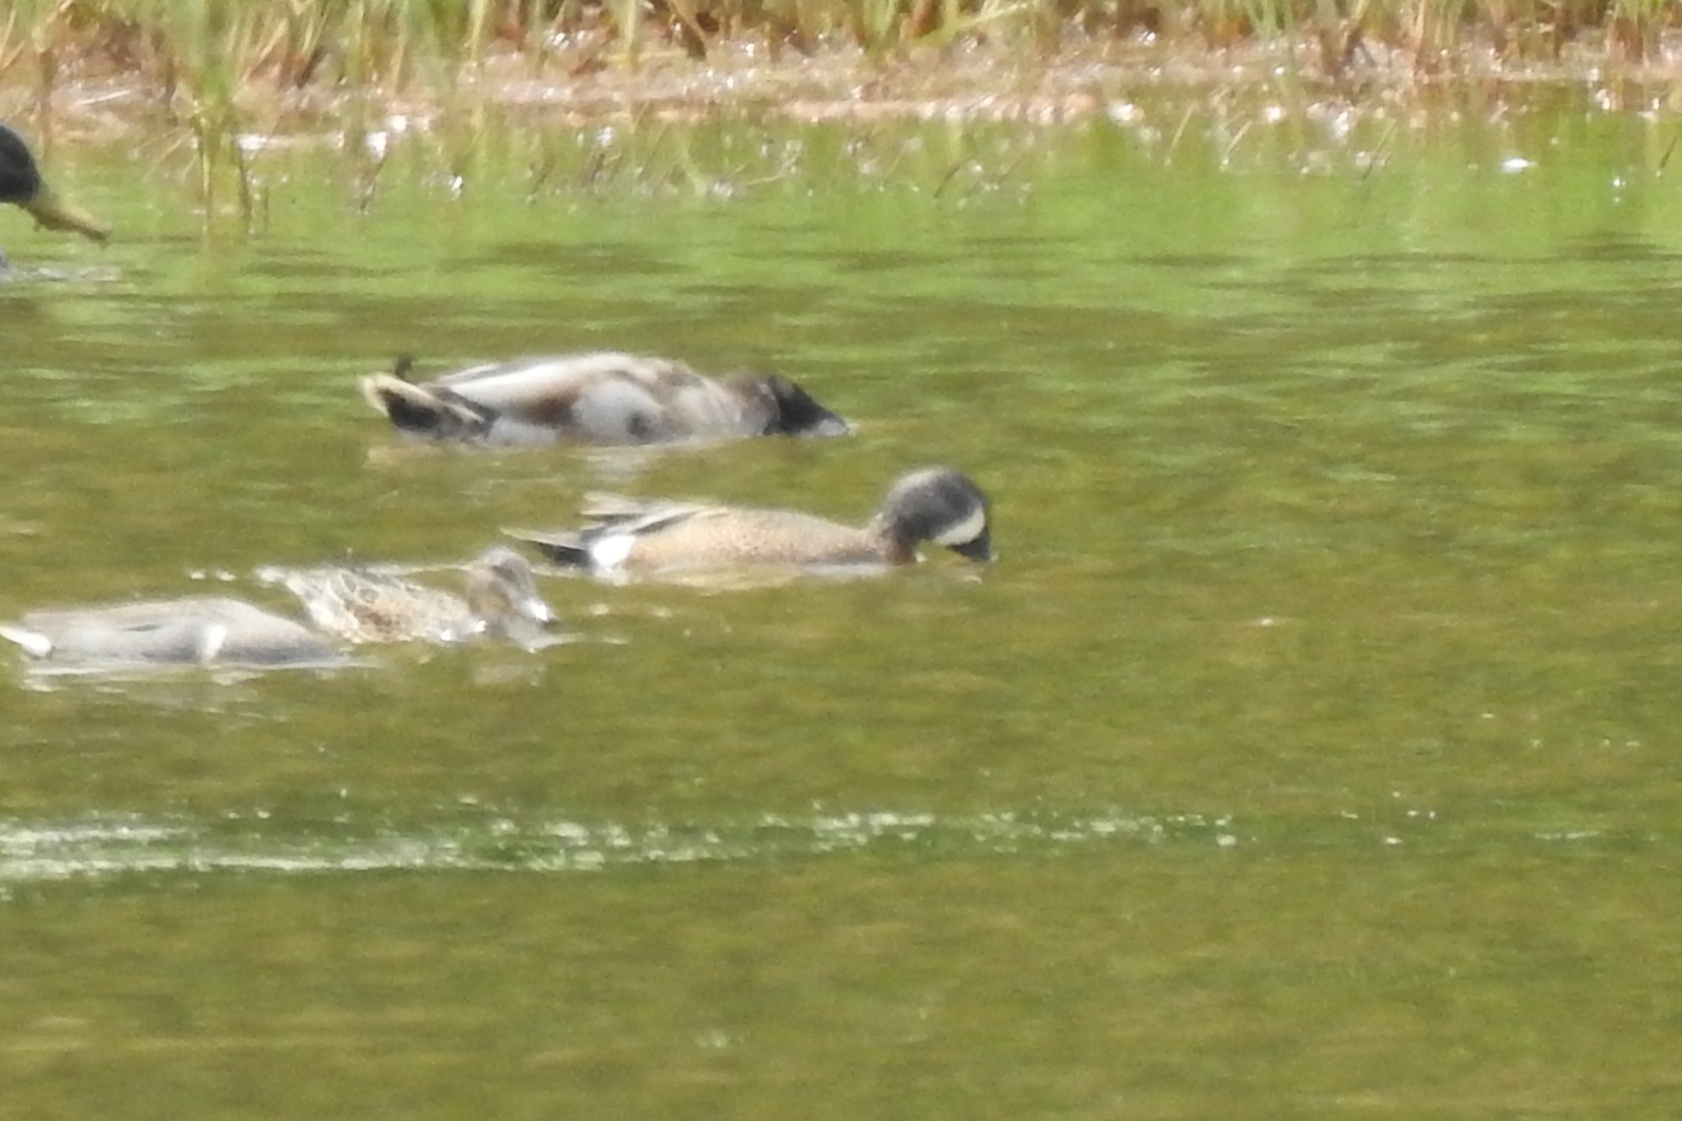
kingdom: Animalia
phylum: Chordata
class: Aves
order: Anseriformes
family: Anatidae
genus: Spatula
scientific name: Spatula discors
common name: Blue-winged teal
